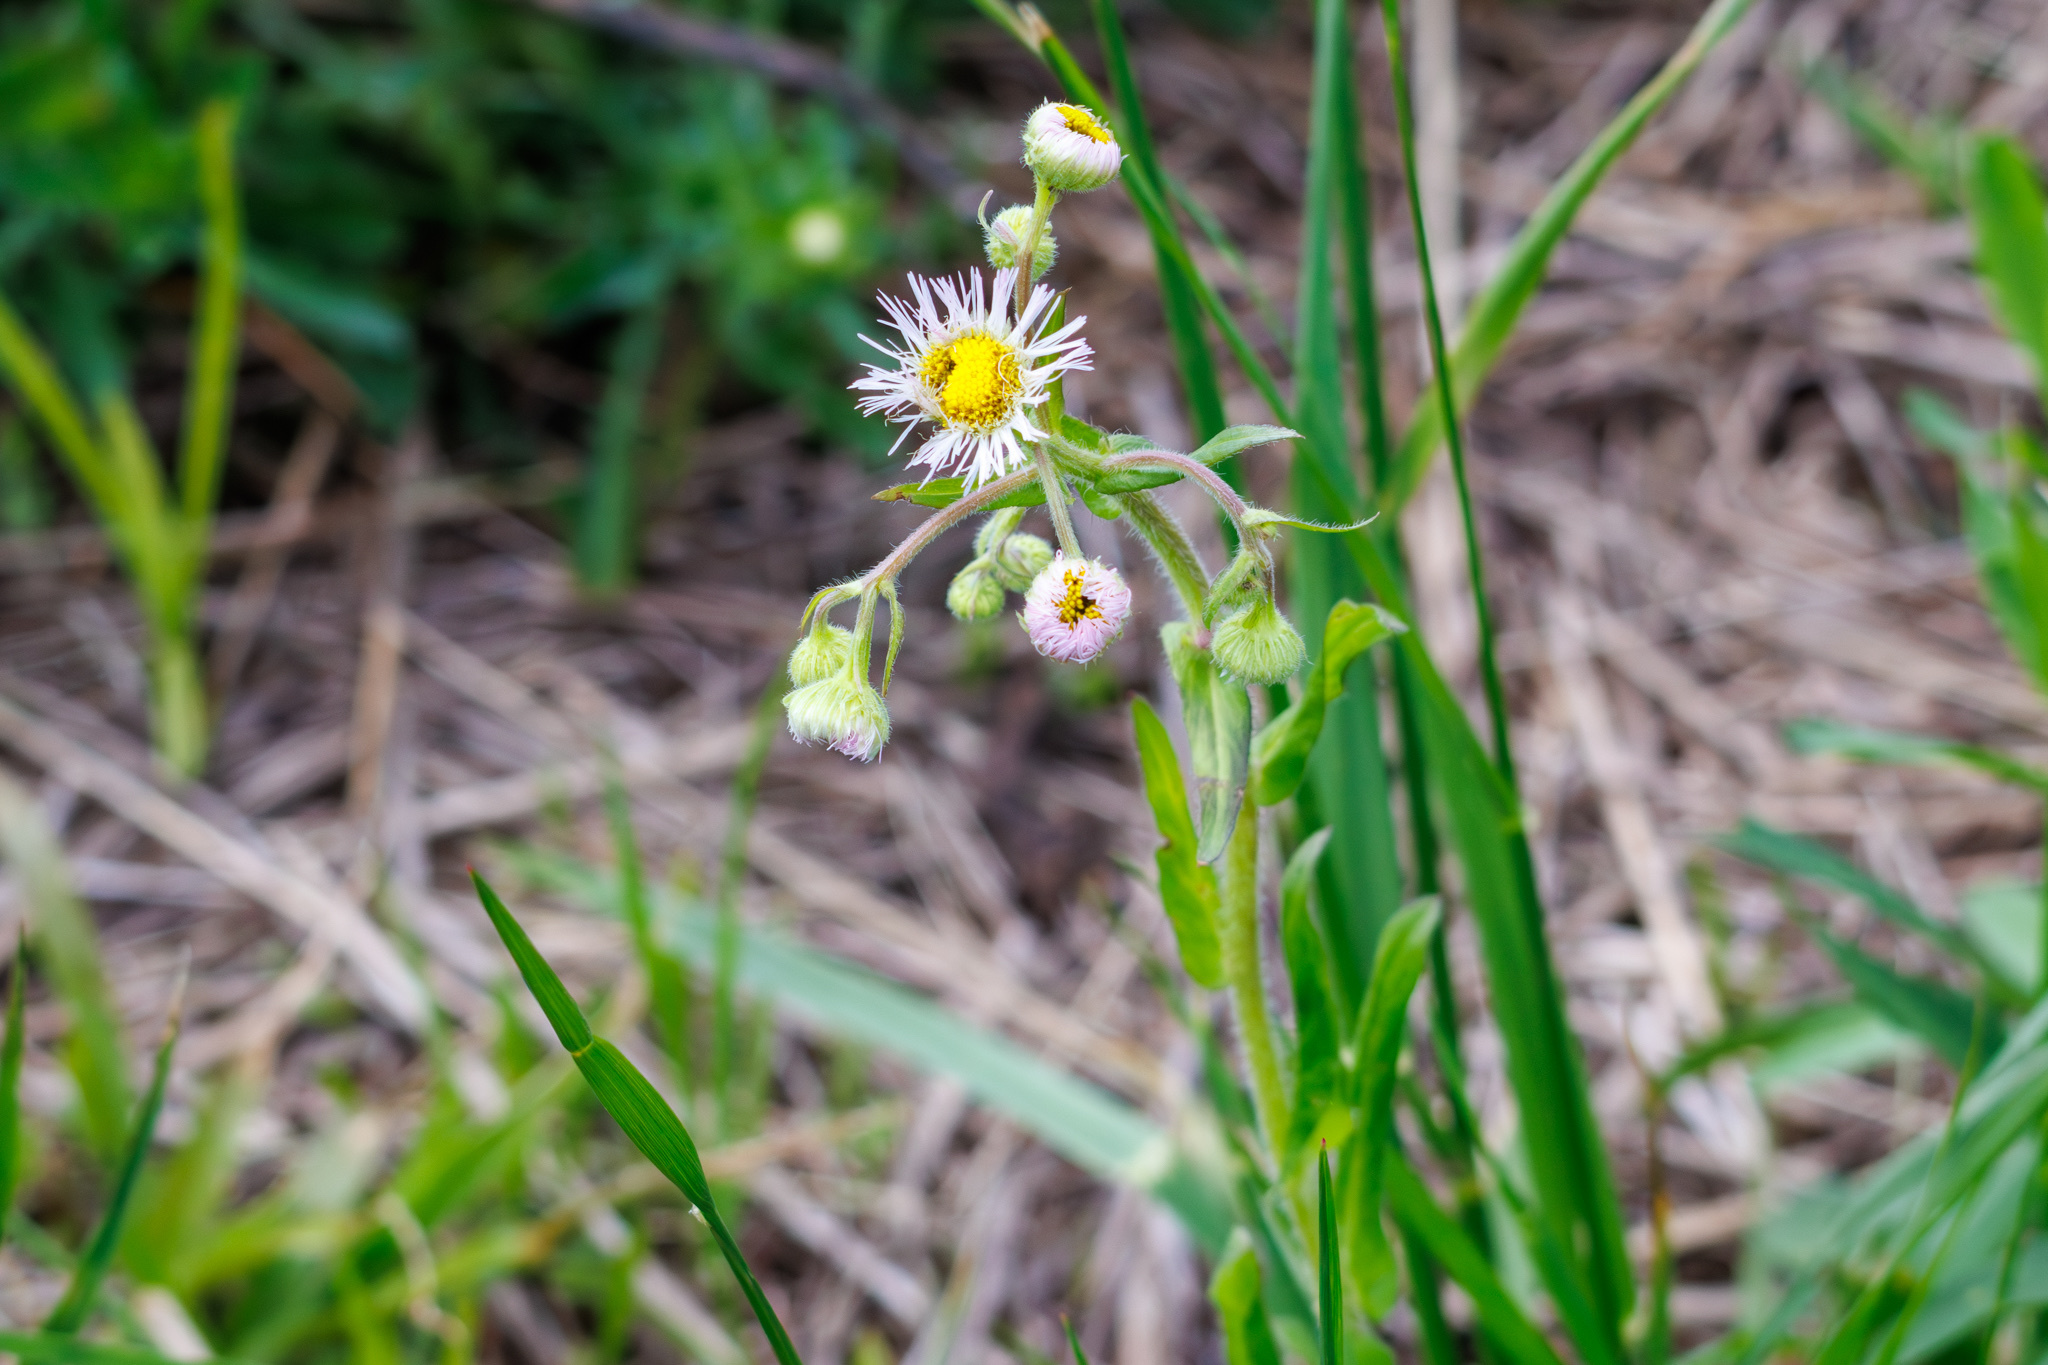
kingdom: Plantae
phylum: Tracheophyta
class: Magnoliopsida
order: Asterales
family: Asteraceae
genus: Erigeron
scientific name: Erigeron philadelphicus
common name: Robin's-plantain
